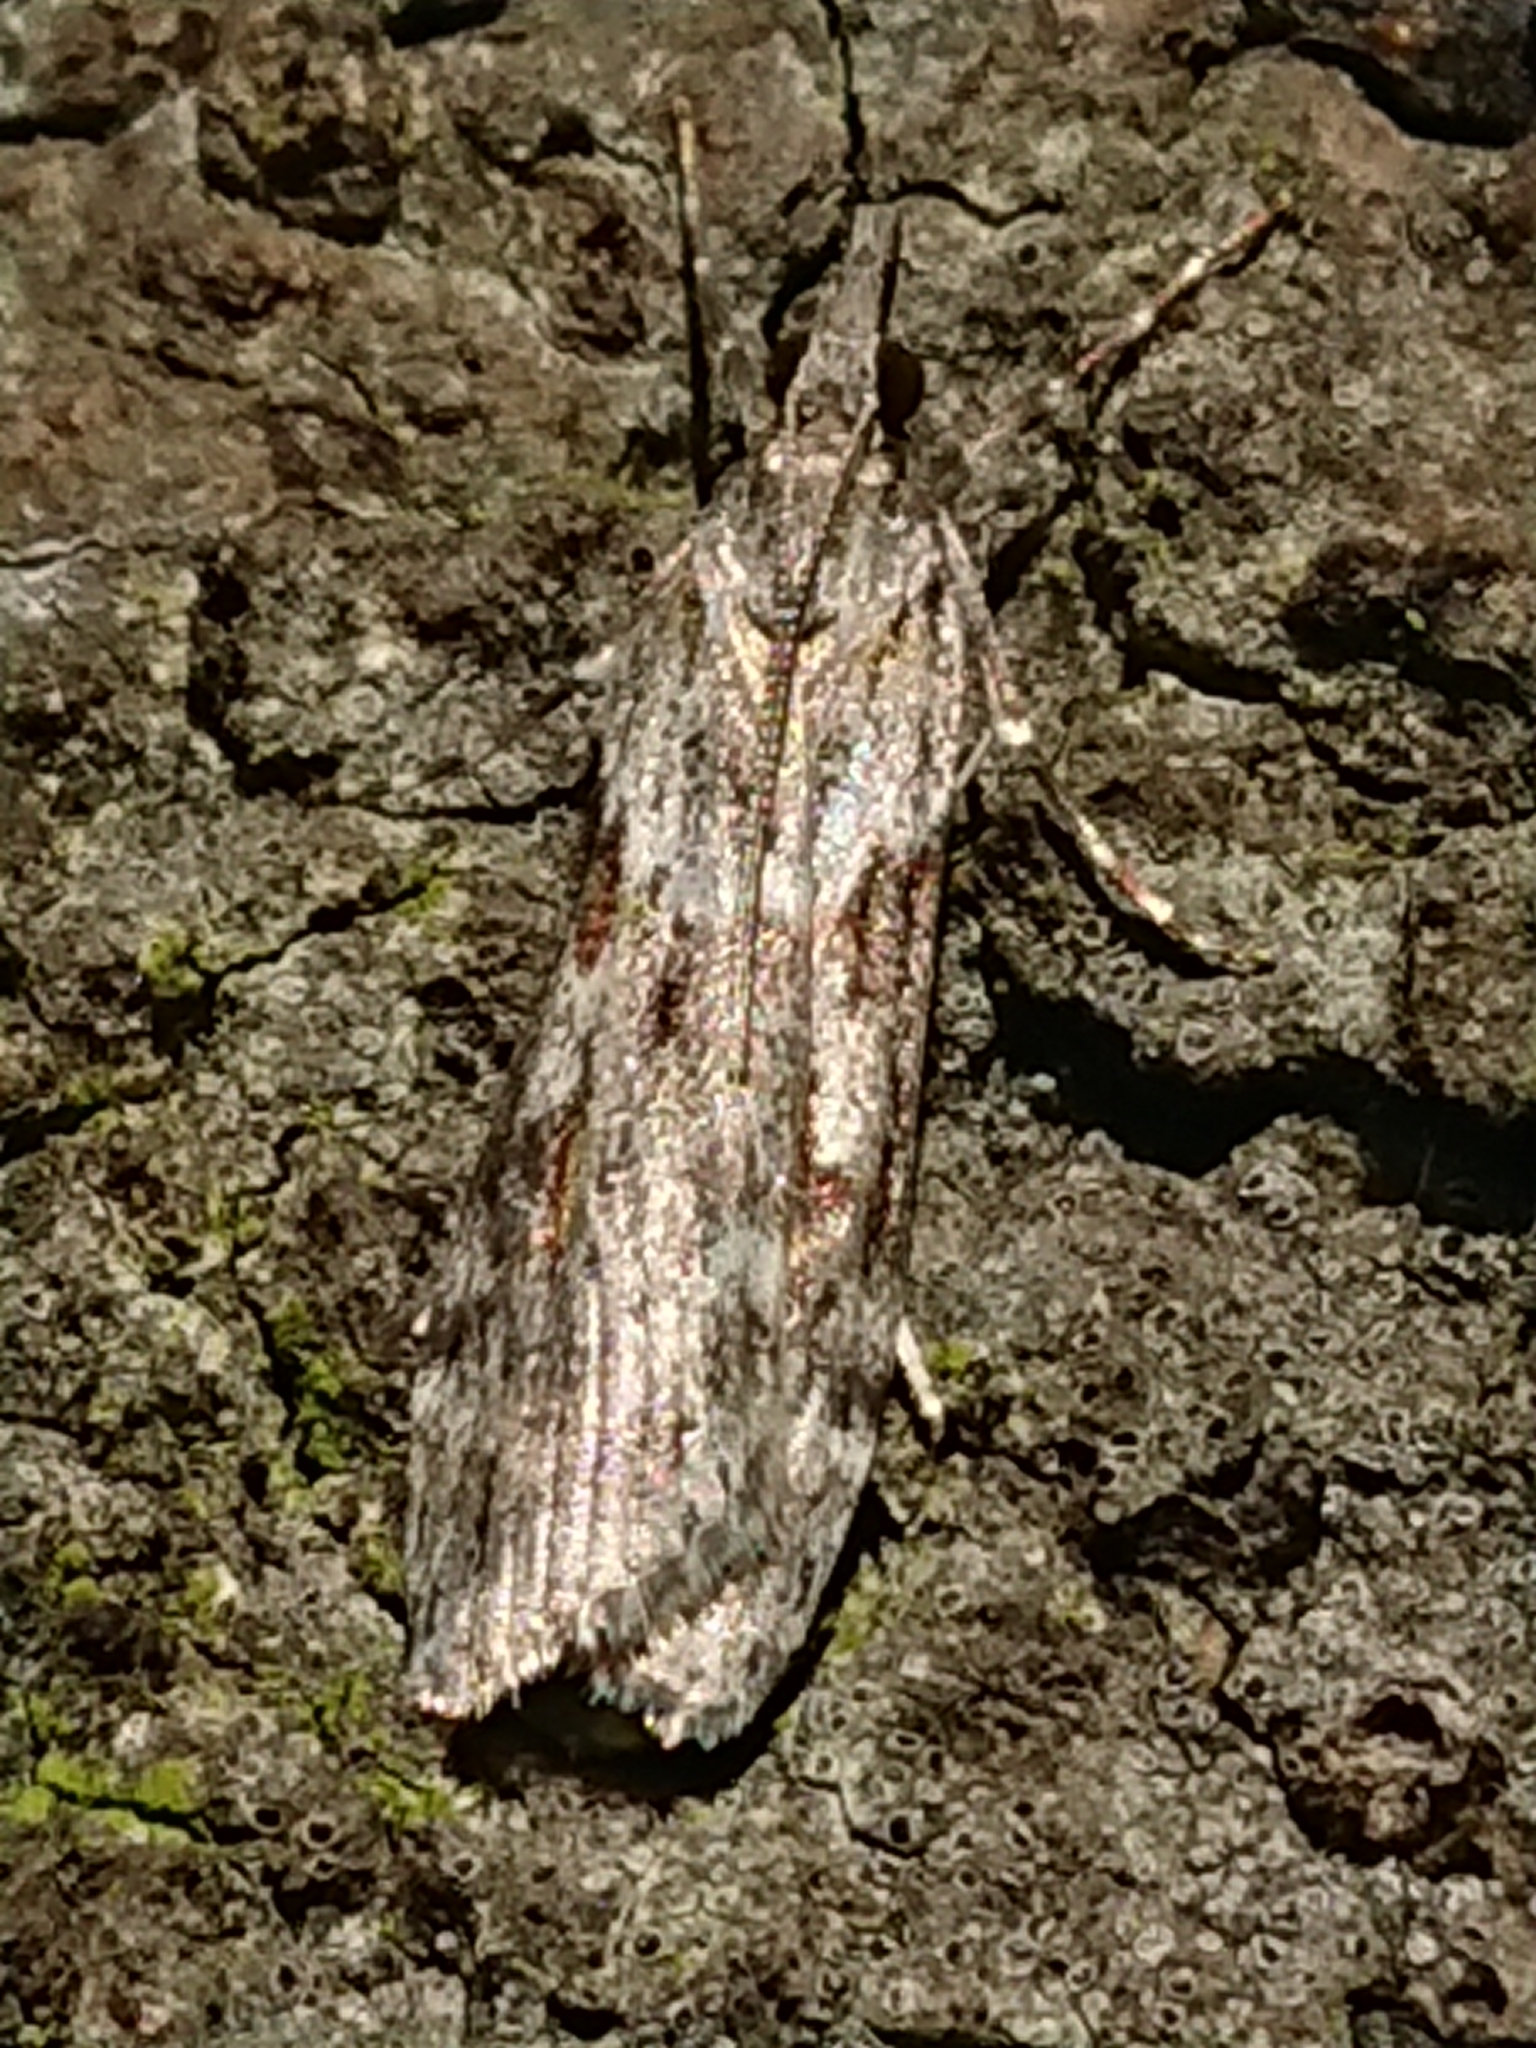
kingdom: Animalia
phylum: Arthropoda
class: Insecta
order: Lepidoptera
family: Crambidae
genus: Scoparia
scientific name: Scoparia halopis
